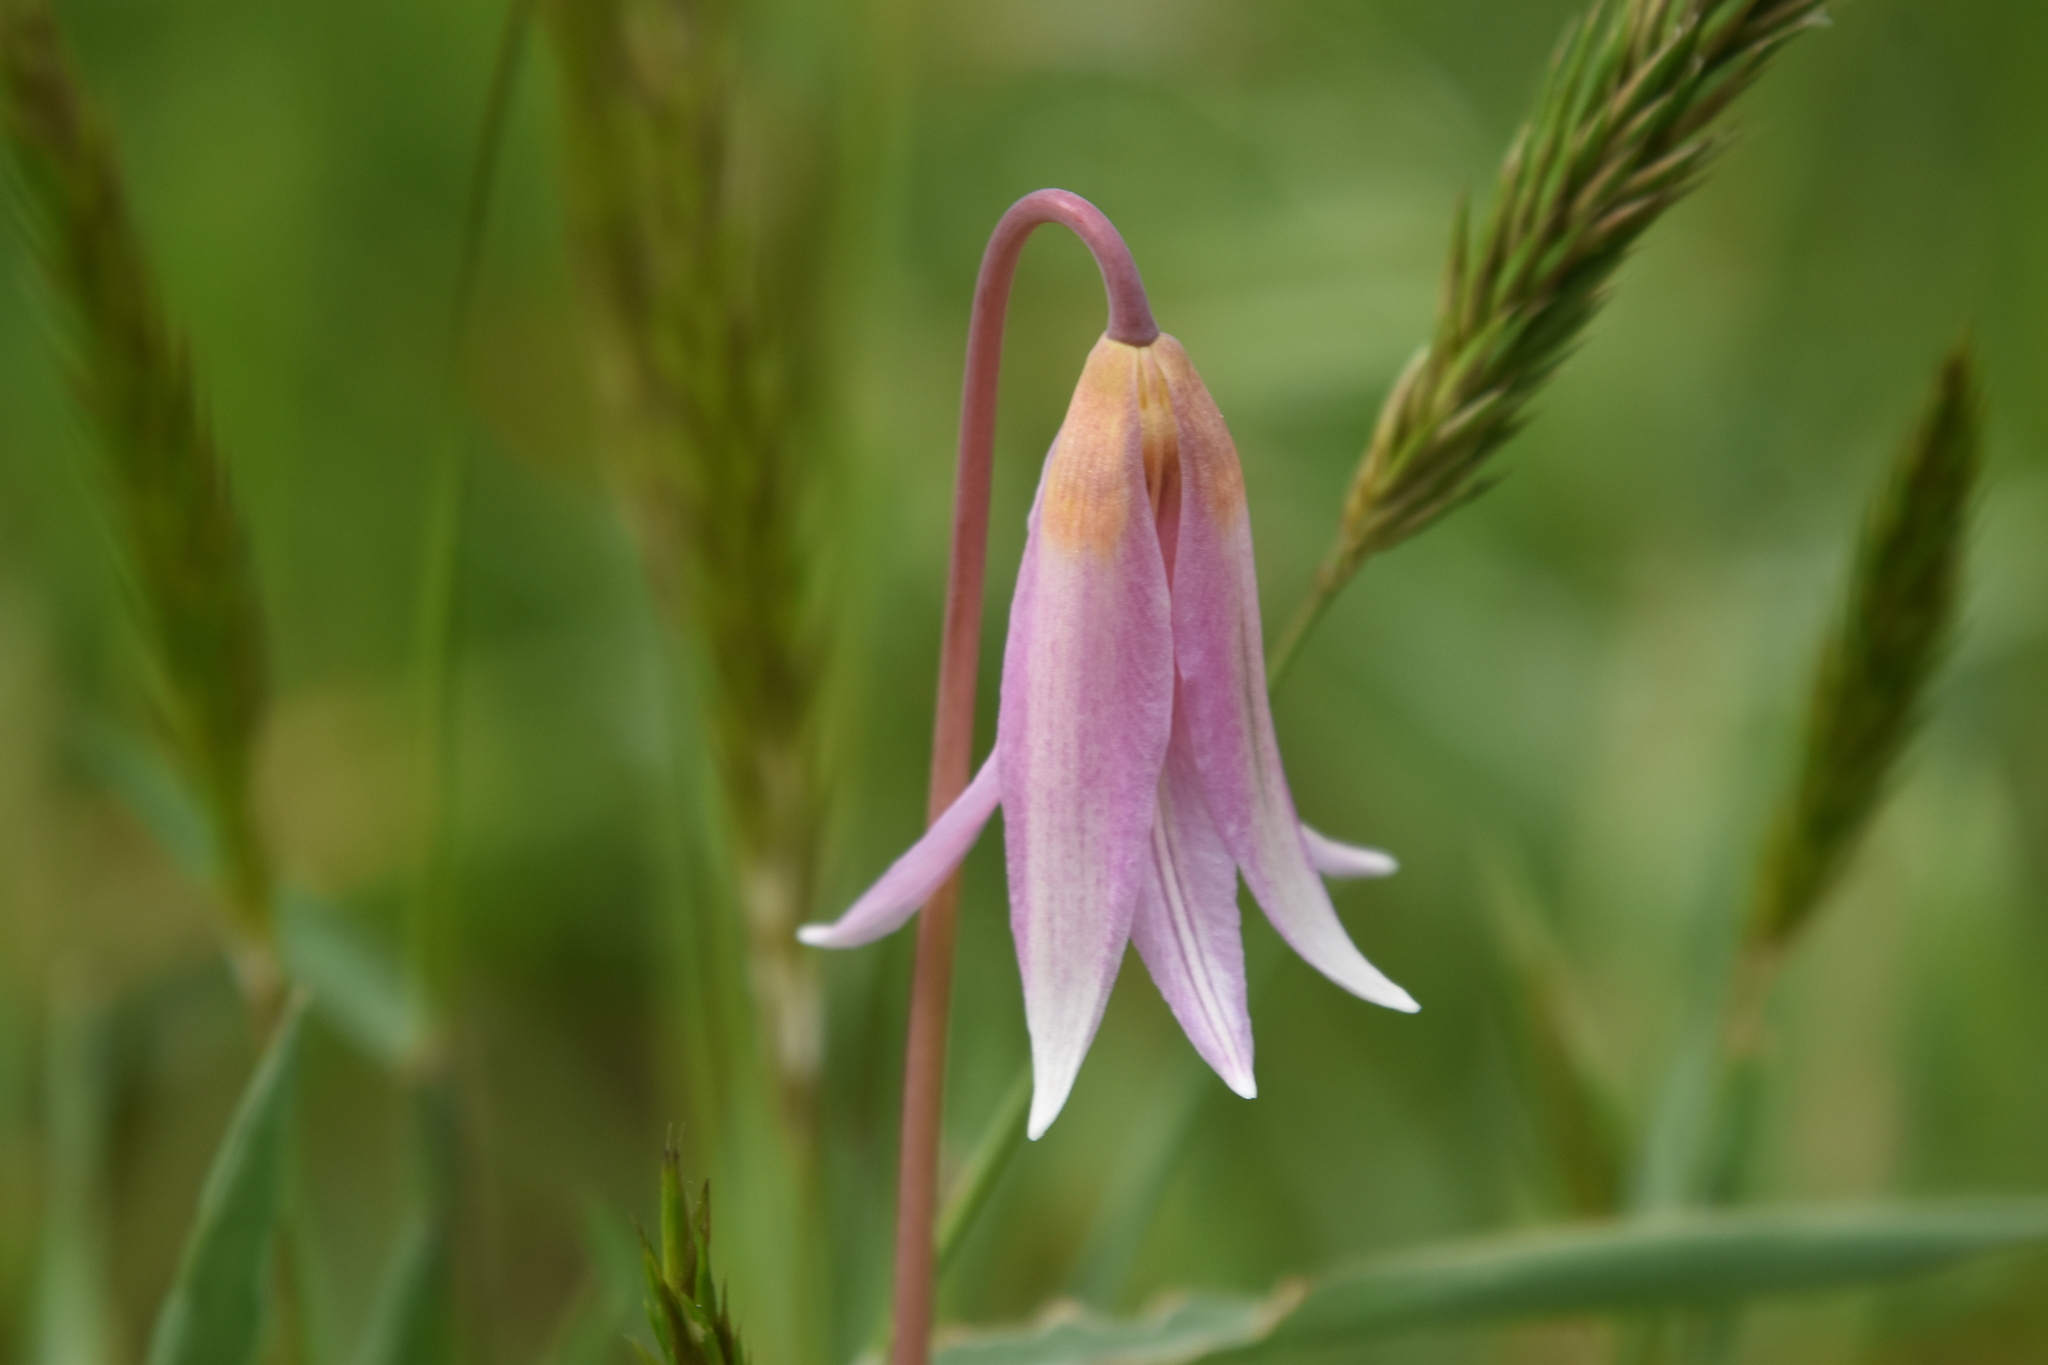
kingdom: Plantae
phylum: Tracheophyta
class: Liliopsida
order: Liliales
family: Liliaceae
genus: Erythronium
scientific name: Erythronium revolutum
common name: Pink fawn-lily
